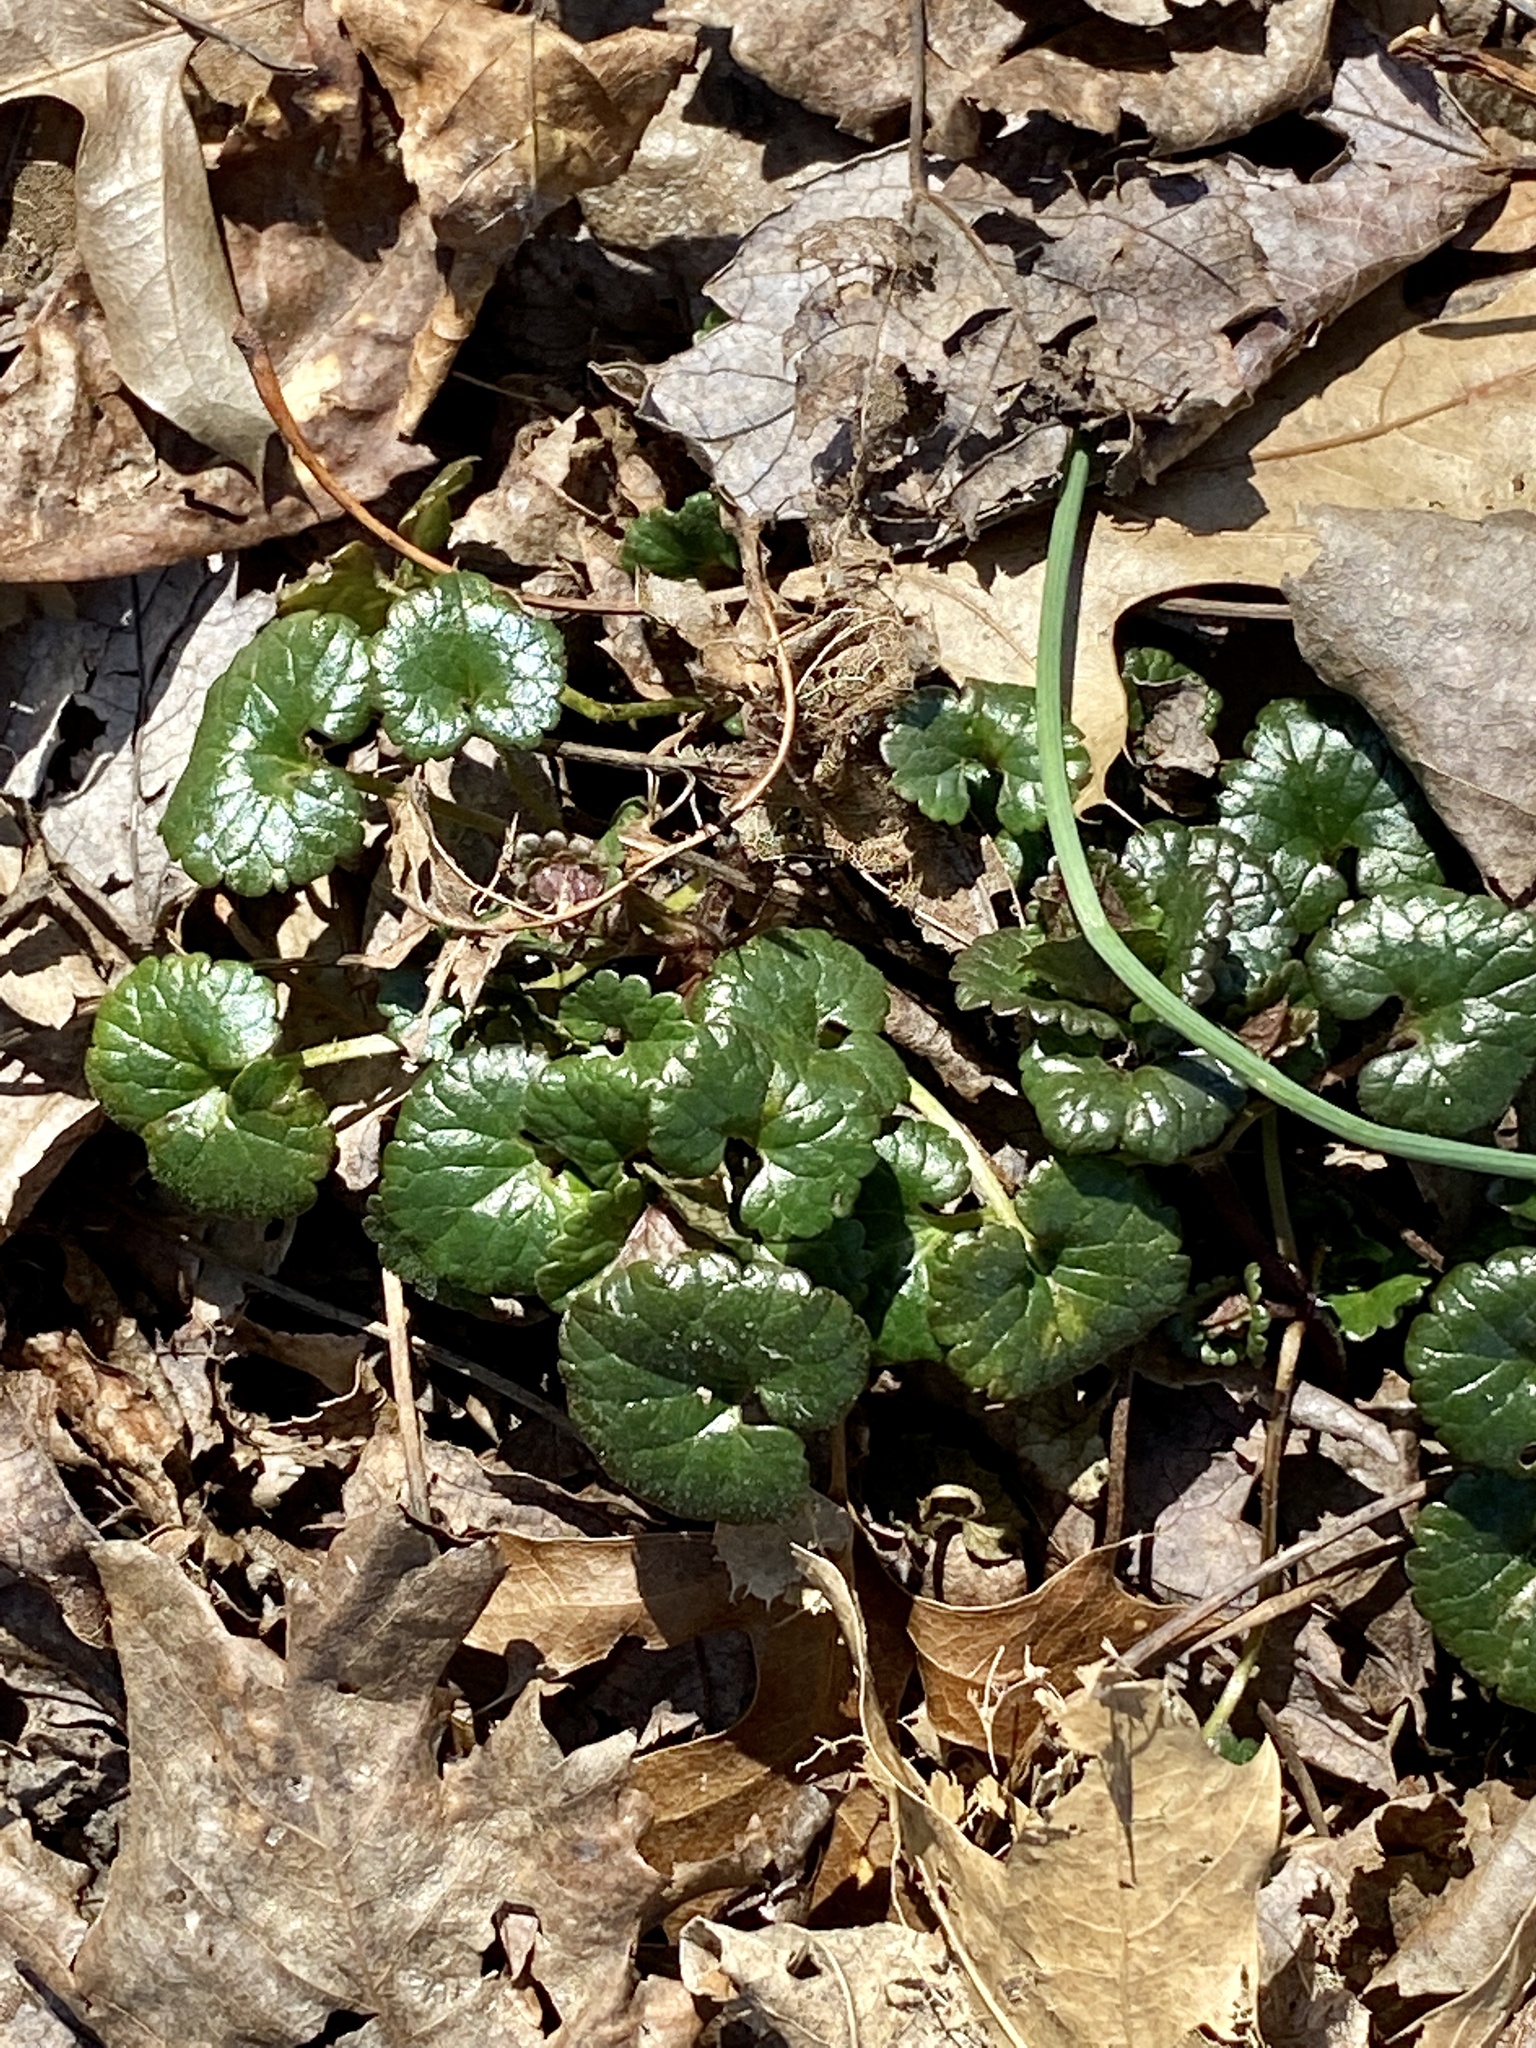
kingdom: Plantae
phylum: Tracheophyta
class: Magnoliopsida
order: Lamiales
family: Lamiaceae
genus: Glechoma
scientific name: Glechoma hederacea
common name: Ground ivy
